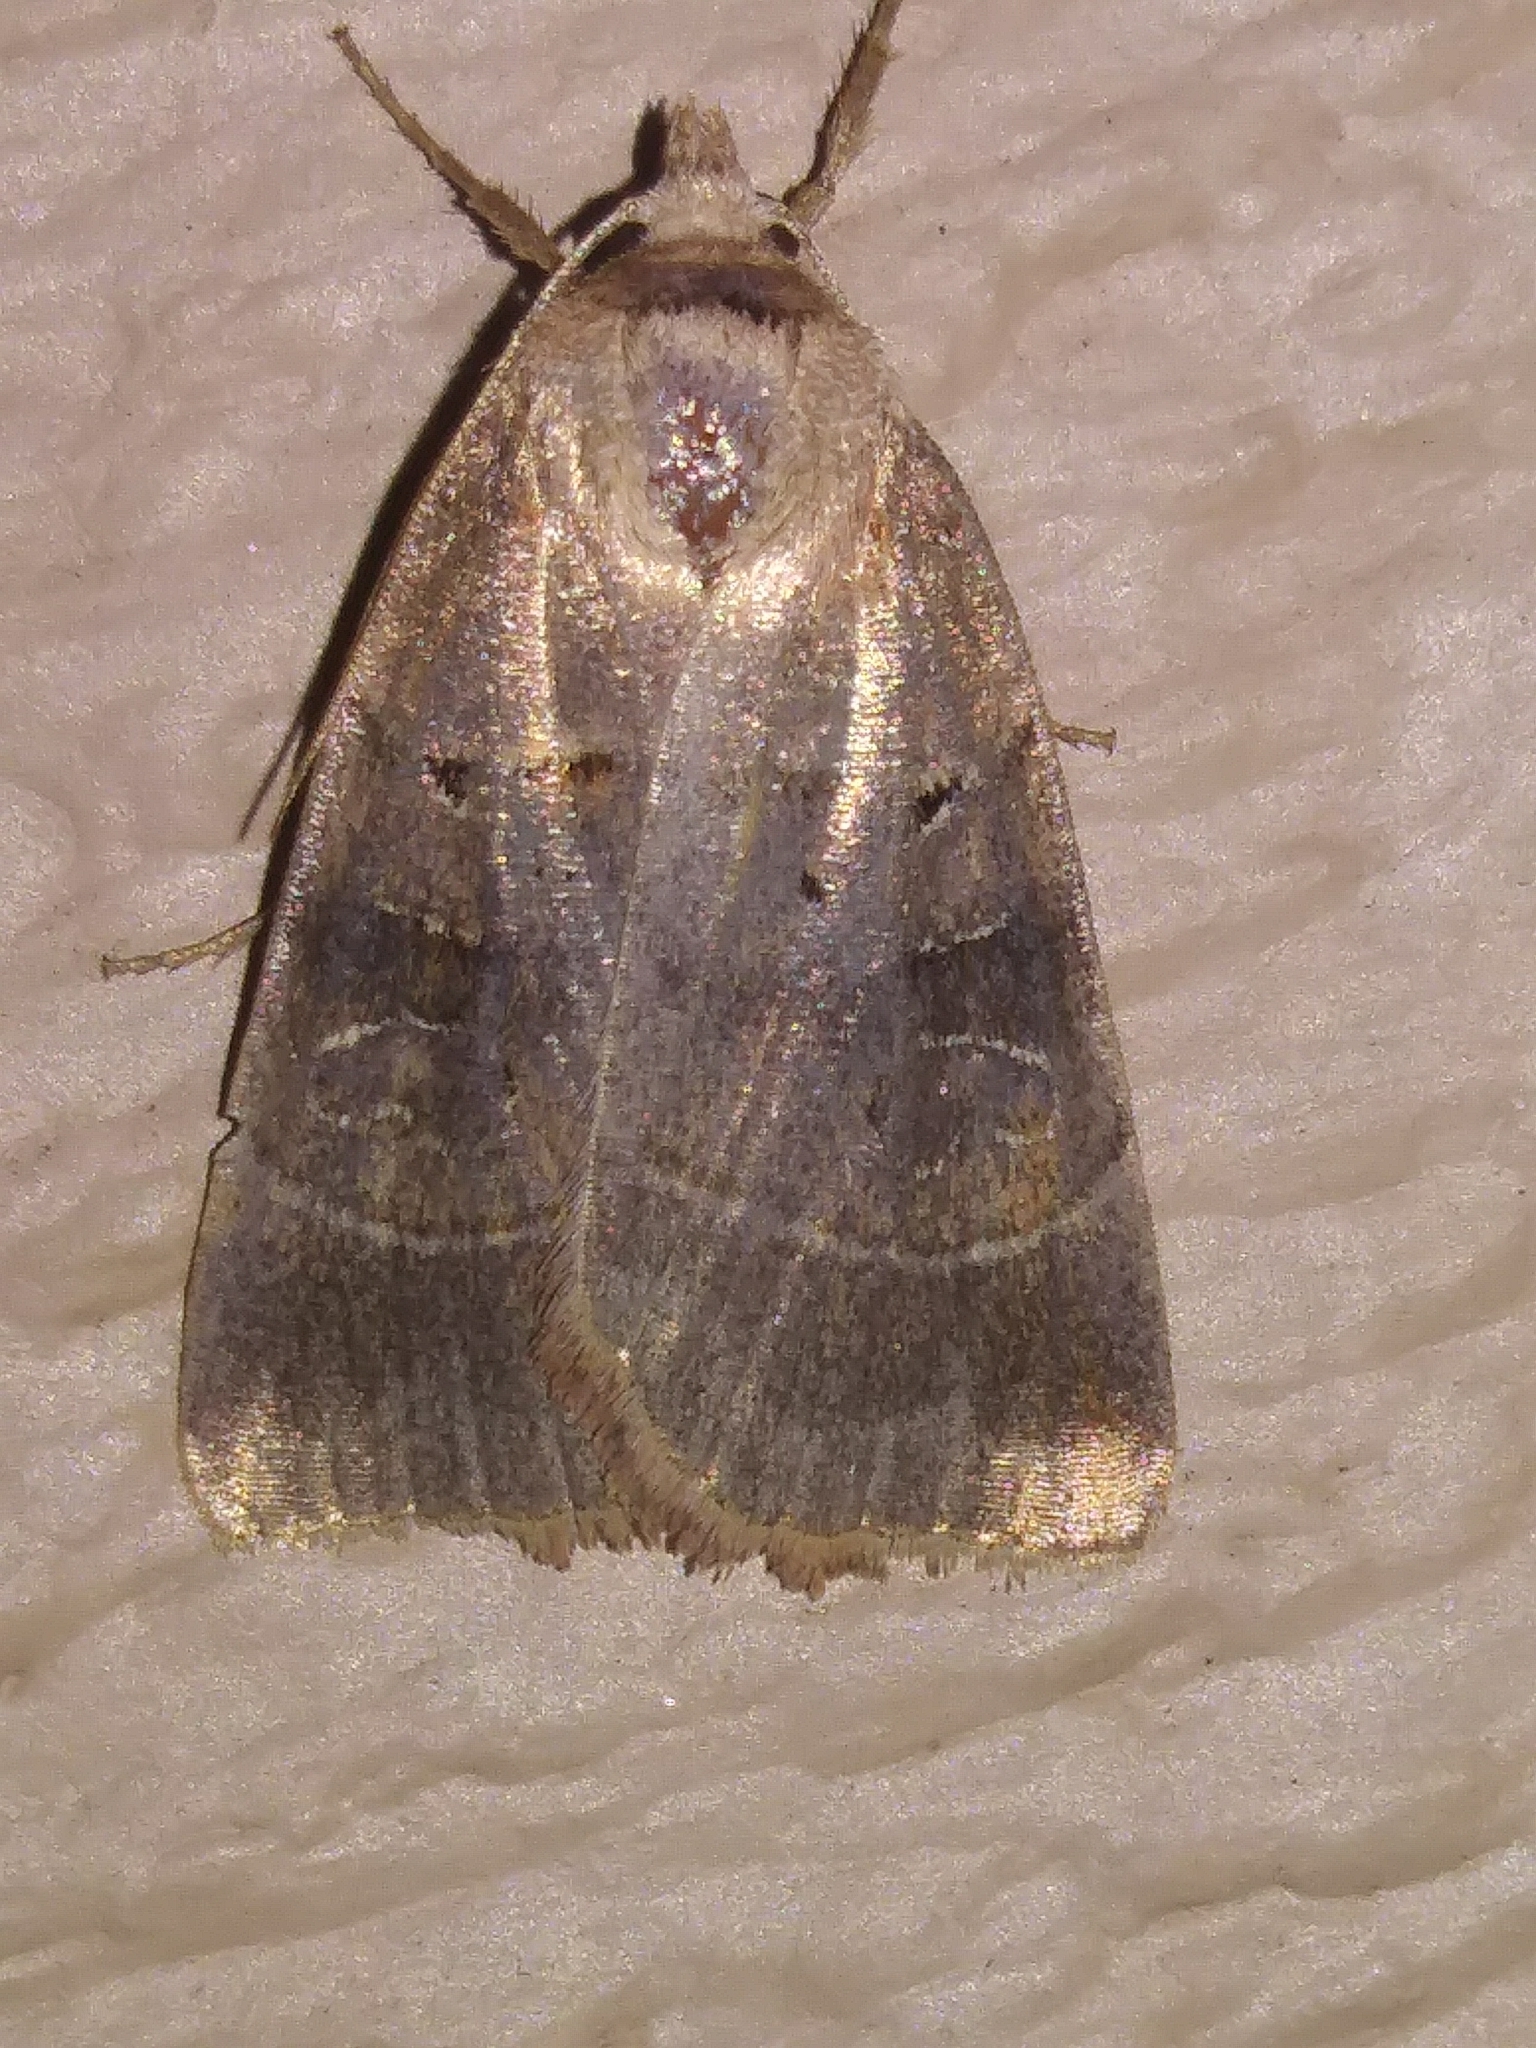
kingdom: Animalia
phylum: Arthropoda
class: Insecta
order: Lepidoptera
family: Noctuidae
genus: Agnorisma
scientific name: Agnorisma badinodis
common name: Pale-banded dart
